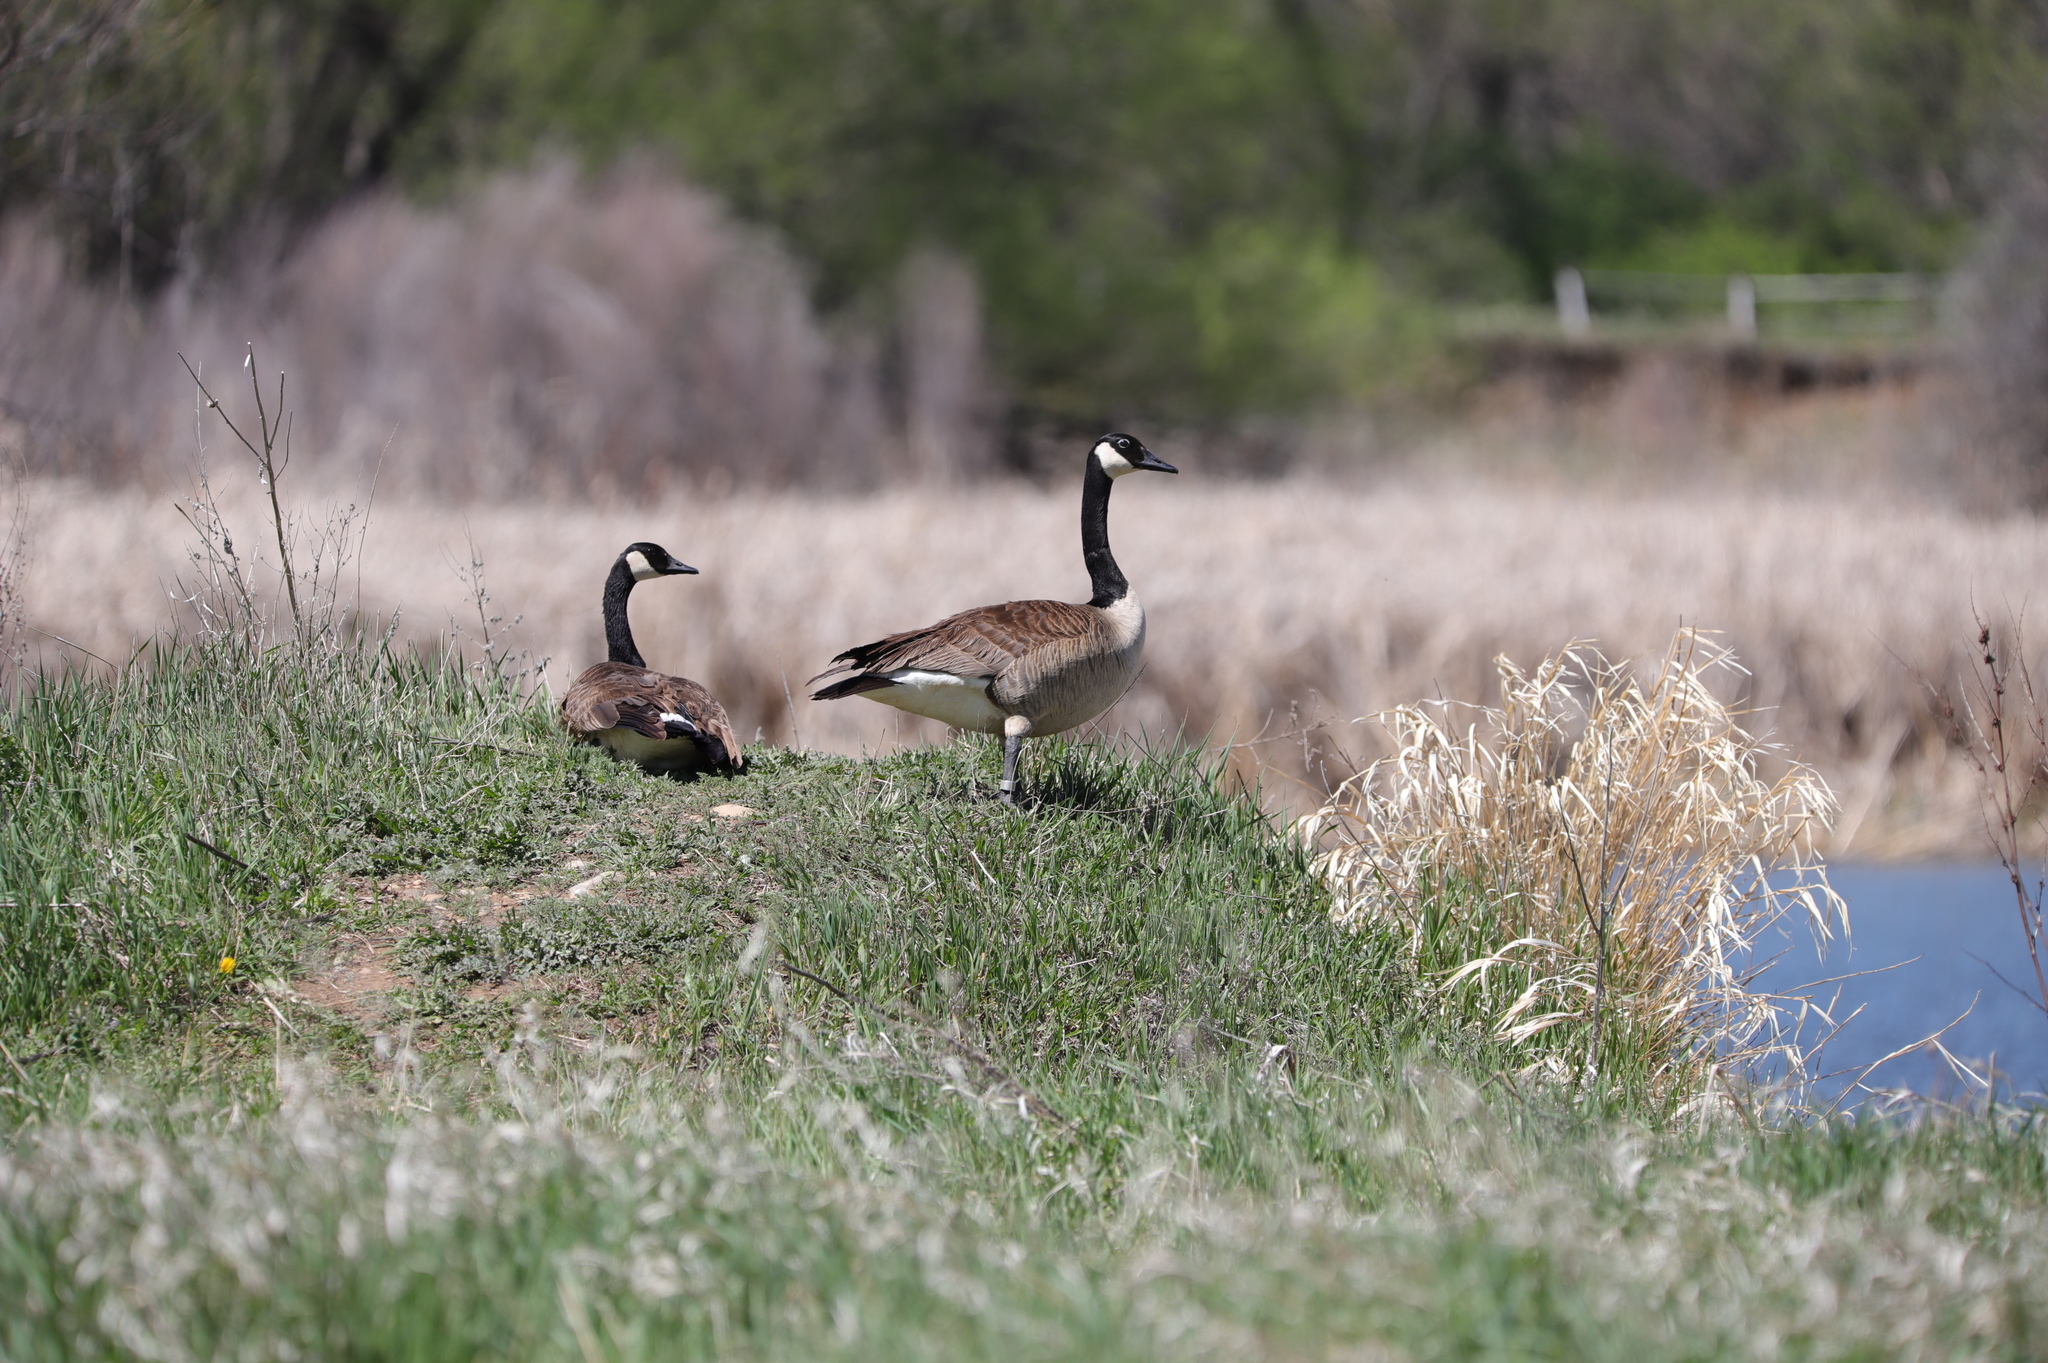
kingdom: Animalia
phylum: Chordata
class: Aves
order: Anseriformes
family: Anatidae
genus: Branta
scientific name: Branta canadensis
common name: Canada goose
